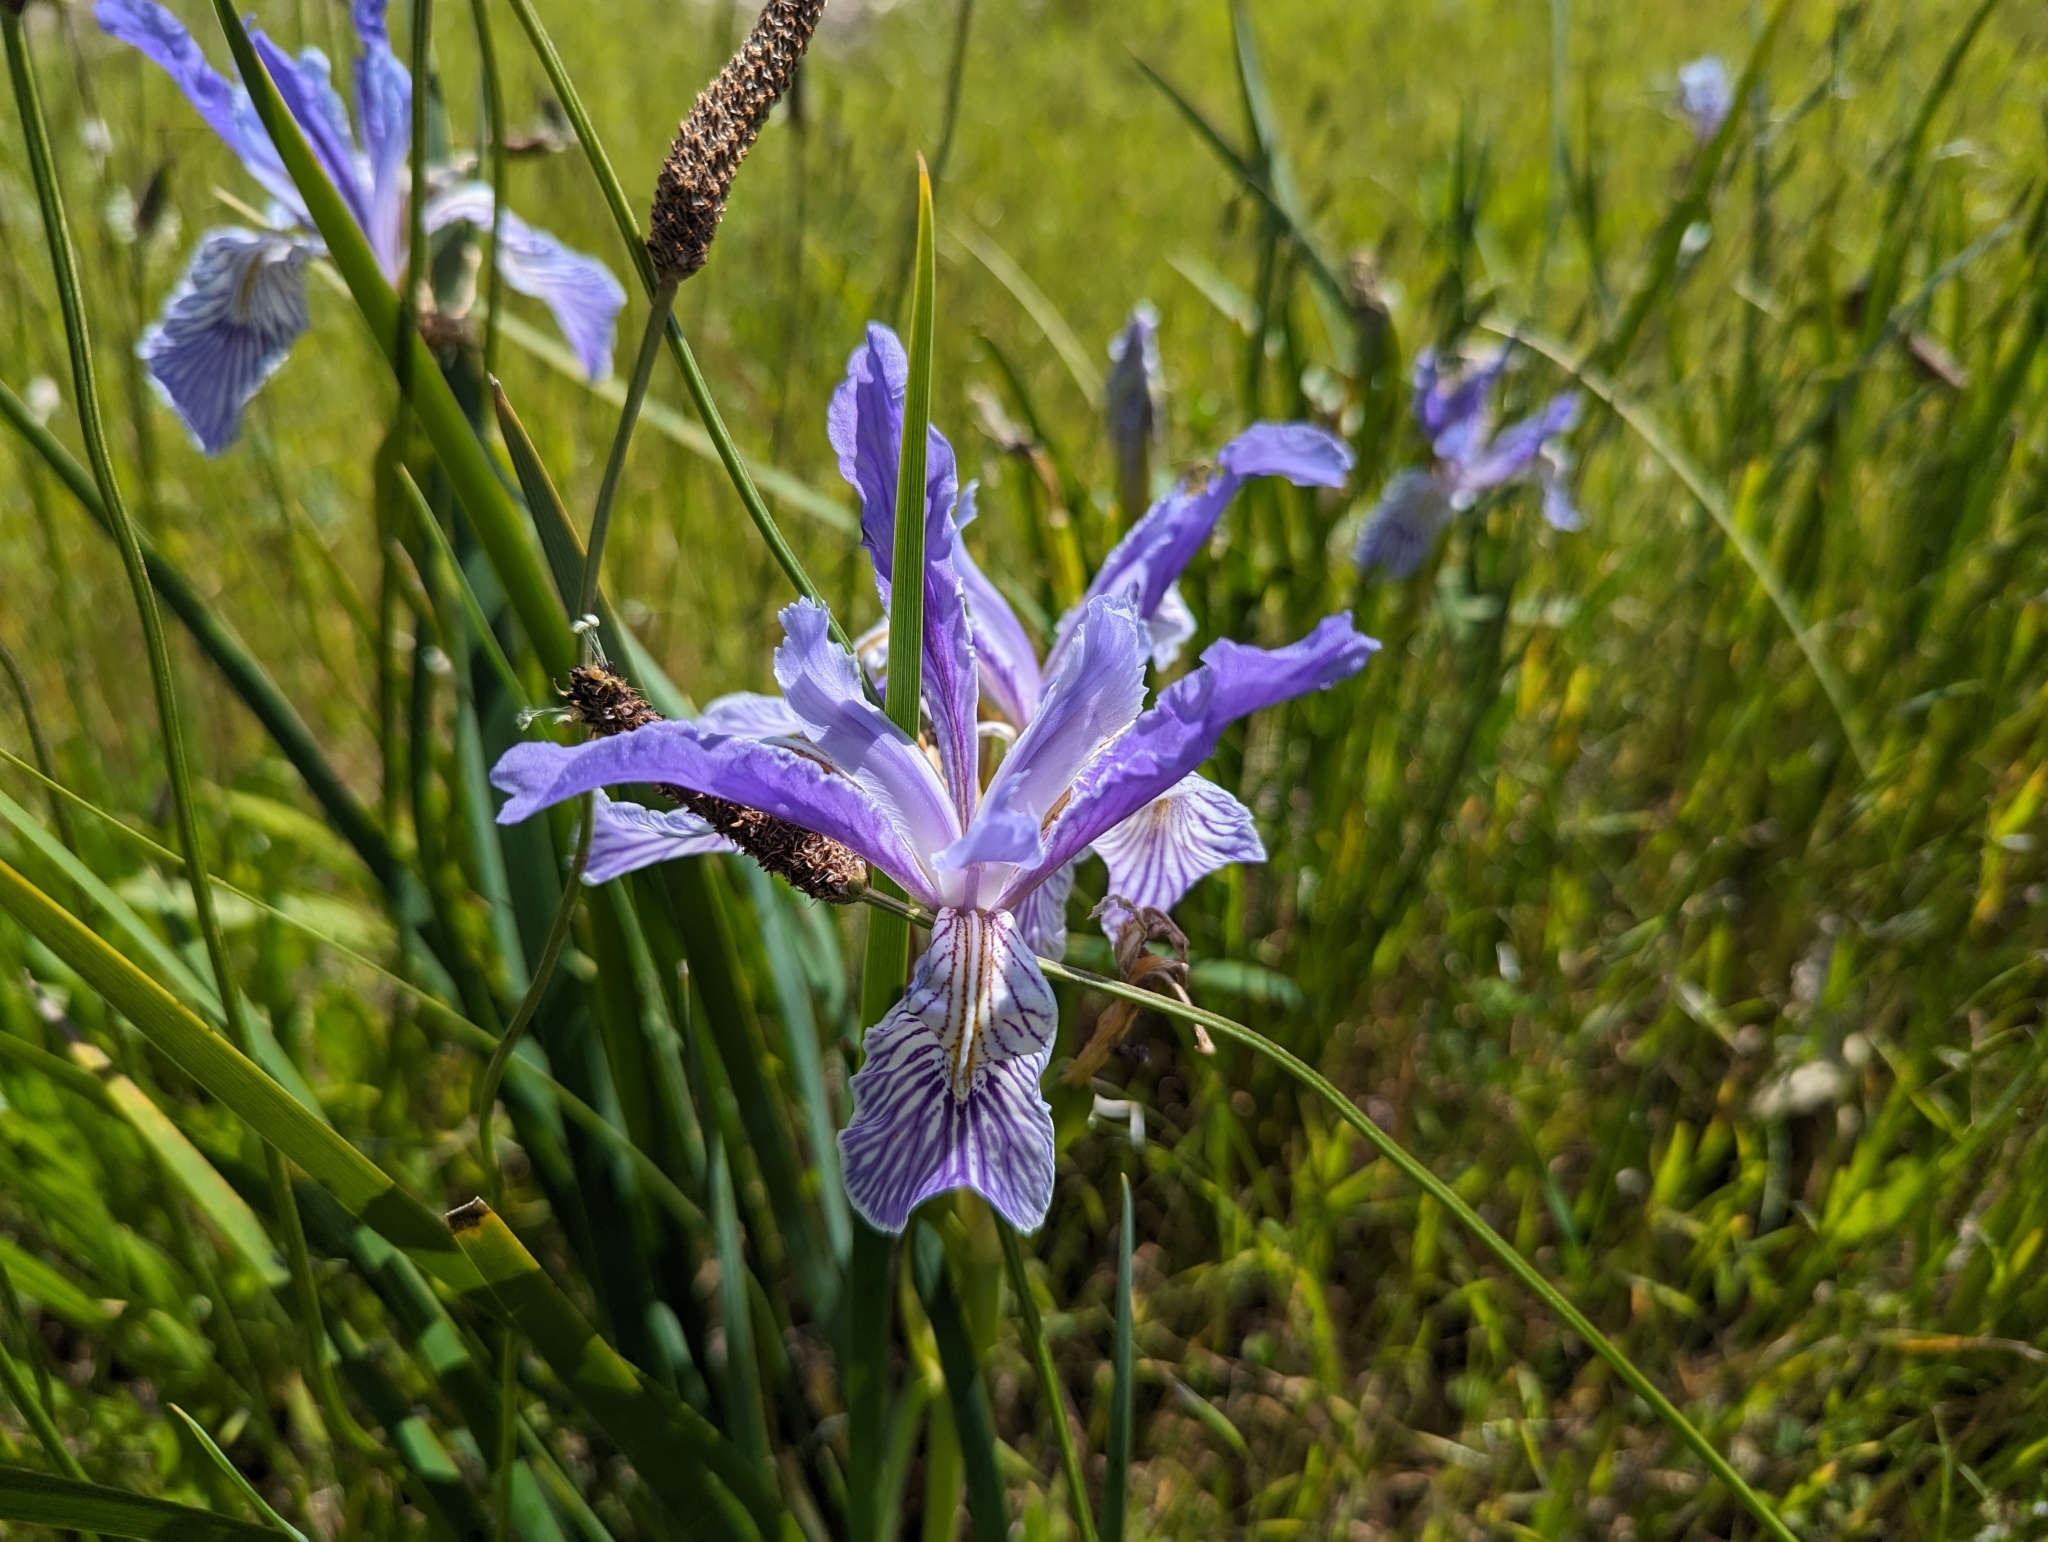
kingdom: Plantae
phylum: Tracheophyta
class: Liliopsida
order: Asparagales
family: Iridaceae
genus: Iris
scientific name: Iris longipetala
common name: Long-petal iris
